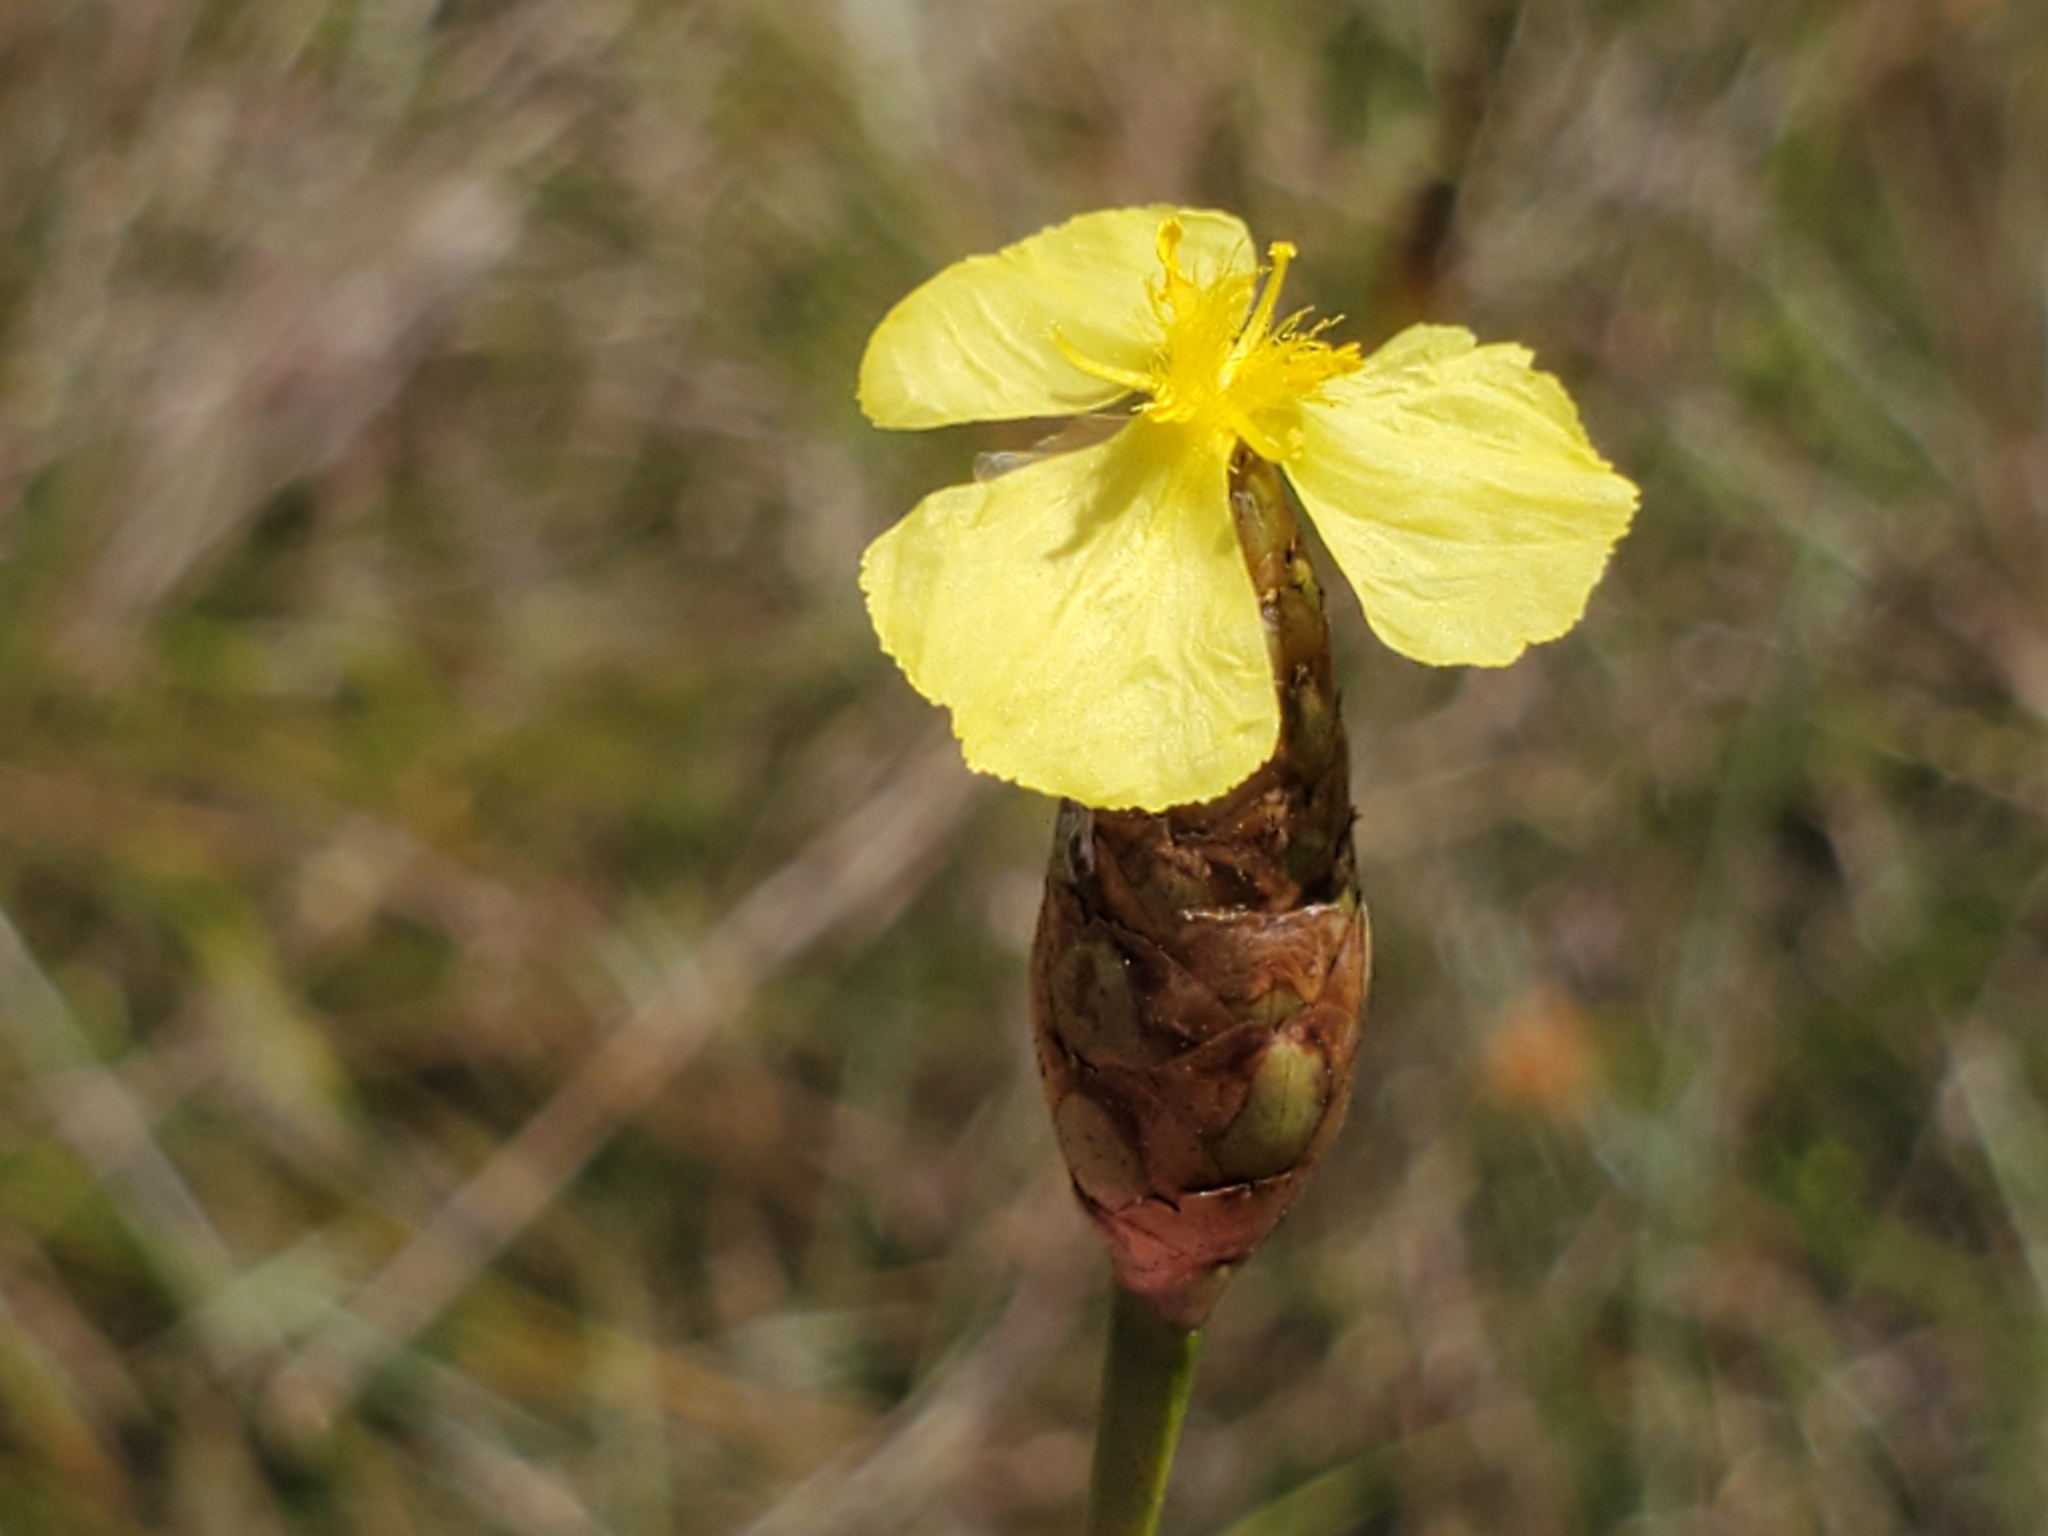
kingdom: Plantae
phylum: Tracheophyta
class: Liliopsida
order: Poales
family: Xyridaceae
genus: Xyris
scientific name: Xyris ambigua
